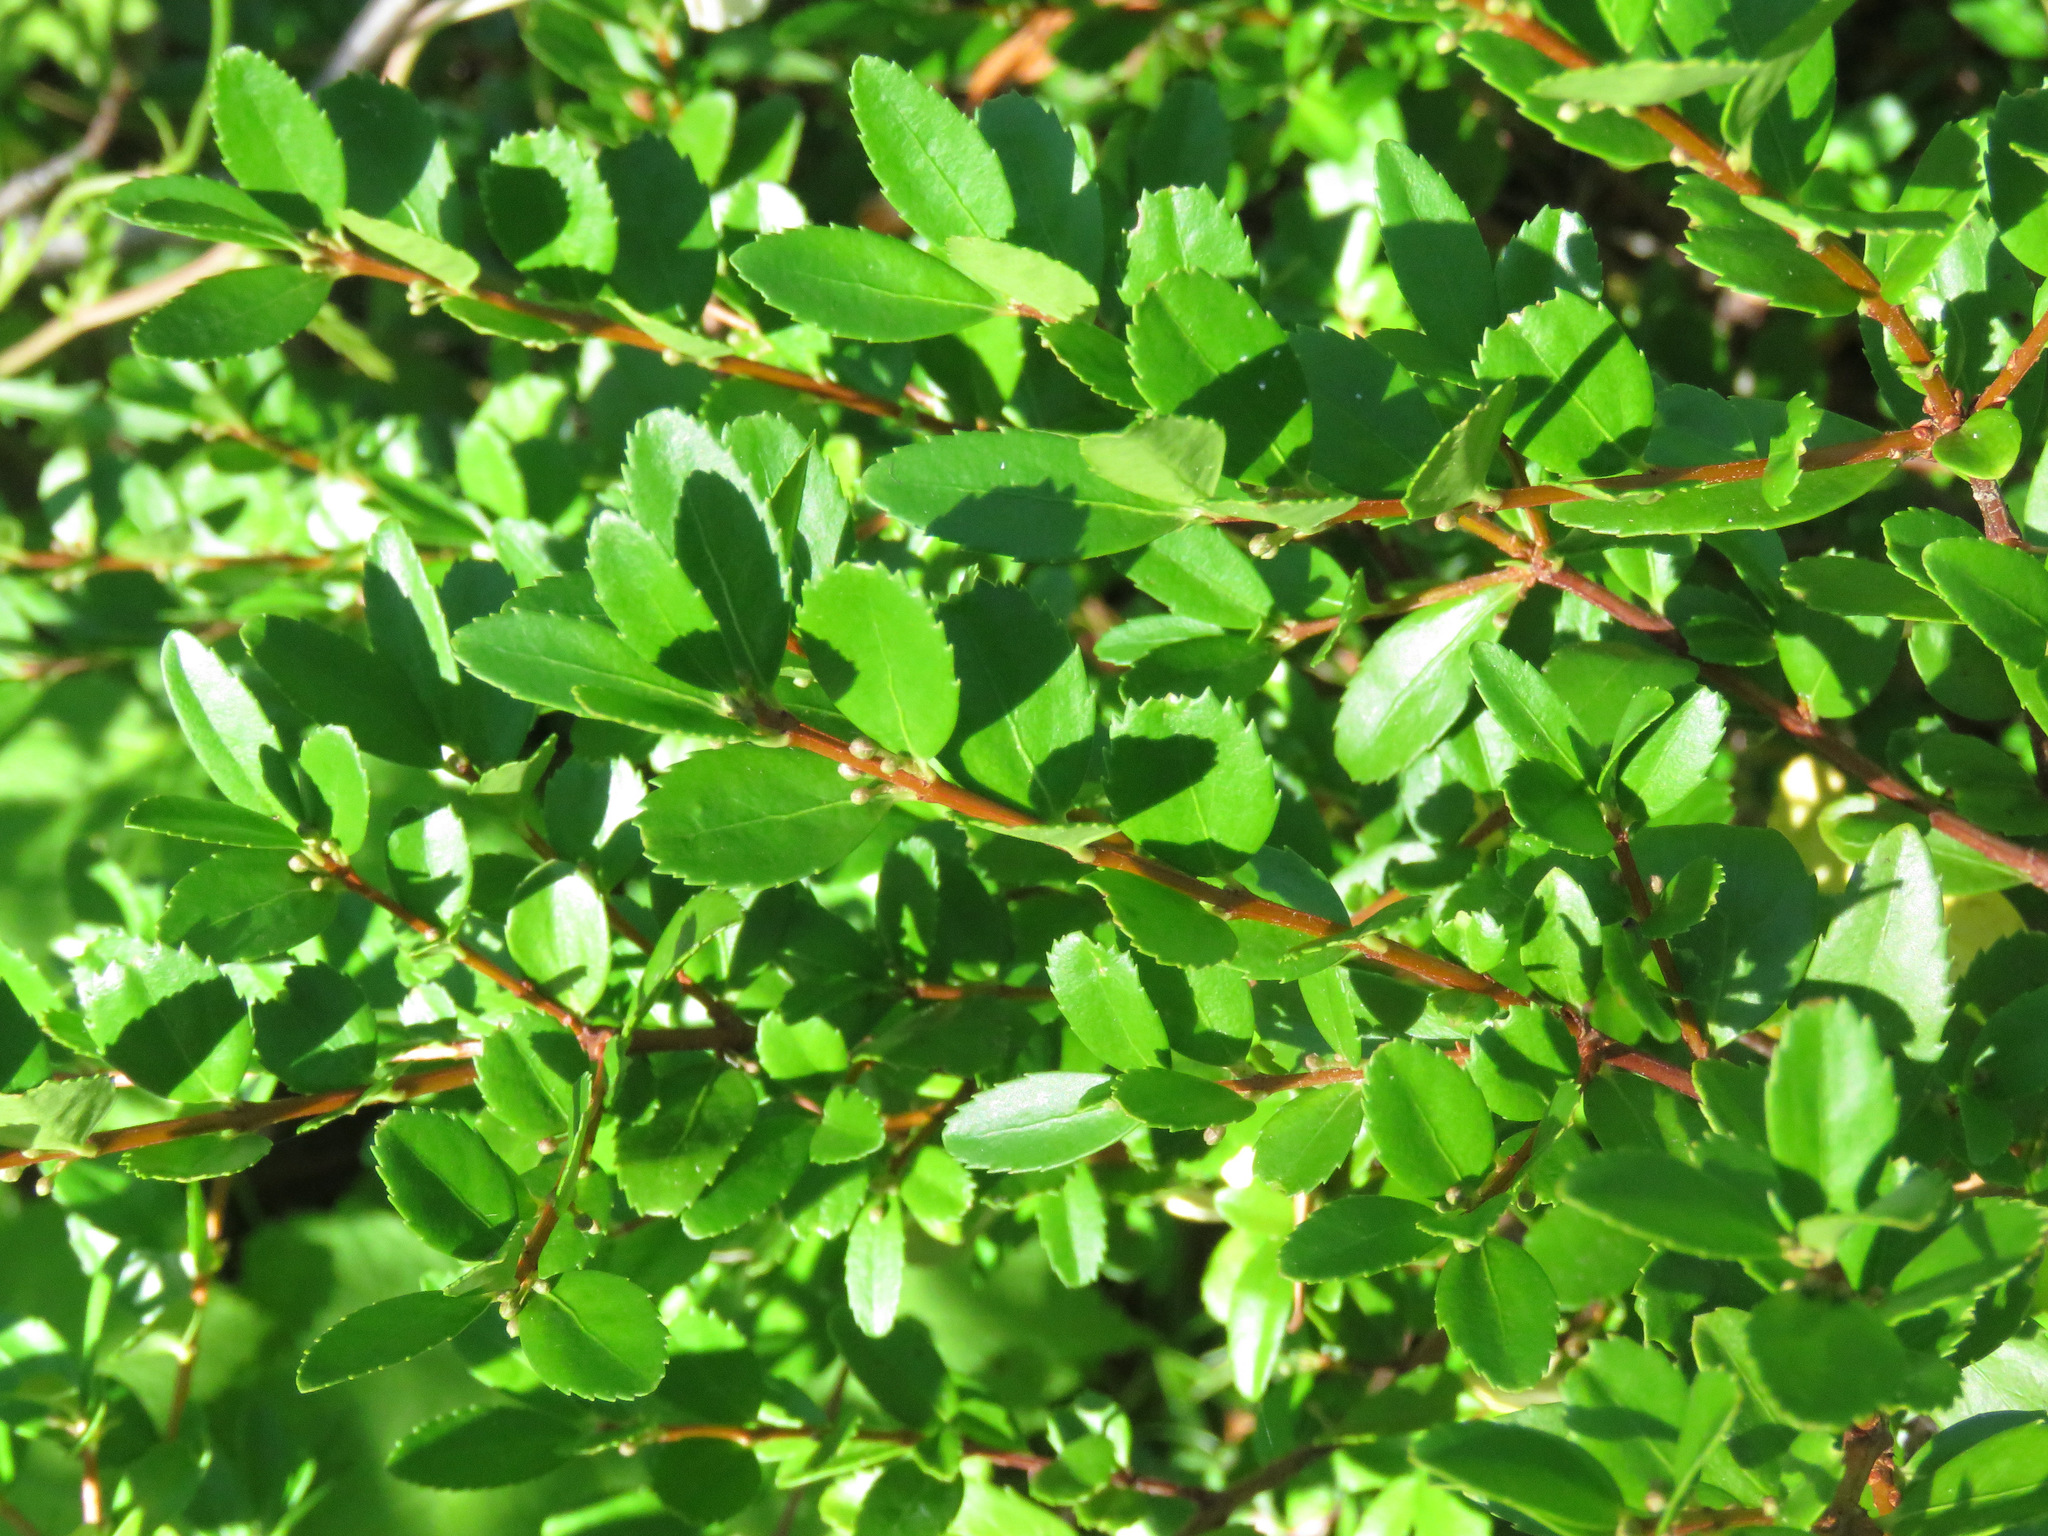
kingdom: Plantae
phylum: Tracheophyta
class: Magnoliopsida
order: Celastrales
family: Celastraceae
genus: Paxistima
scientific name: Paxistima myrsinites
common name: Mountain-lover
